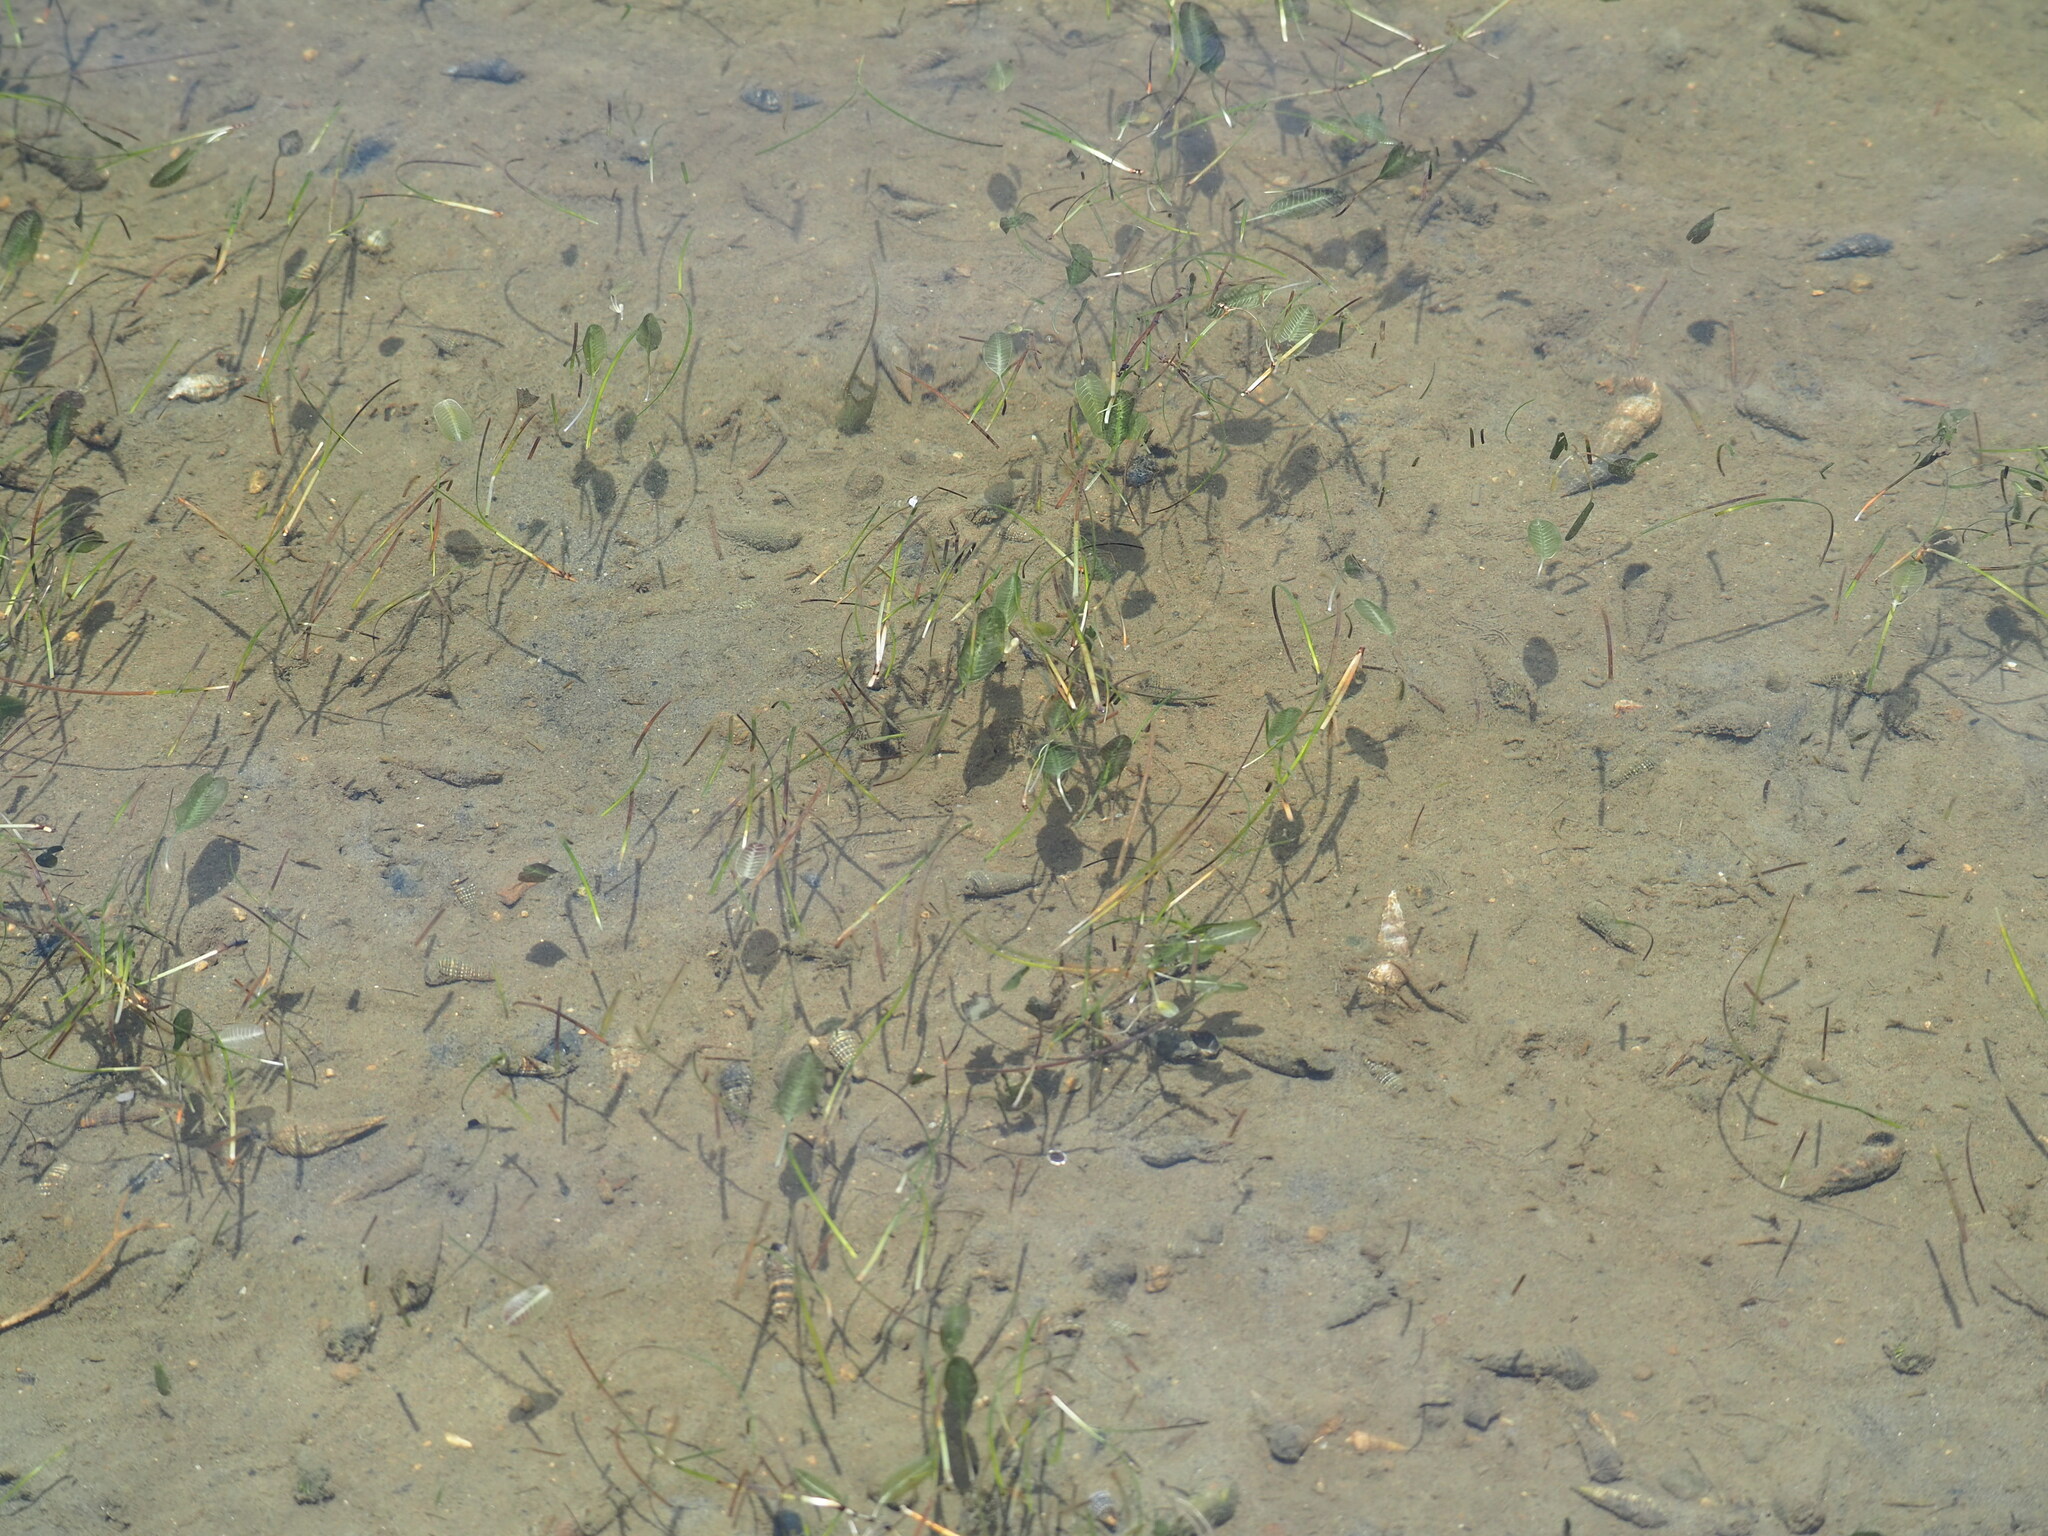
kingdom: Plantae
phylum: Tracheophyta
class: Liliopsida
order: Alismatales
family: Hydrocharitaceae
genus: Halophila
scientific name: Halophila ovalis
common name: Species code: ho
